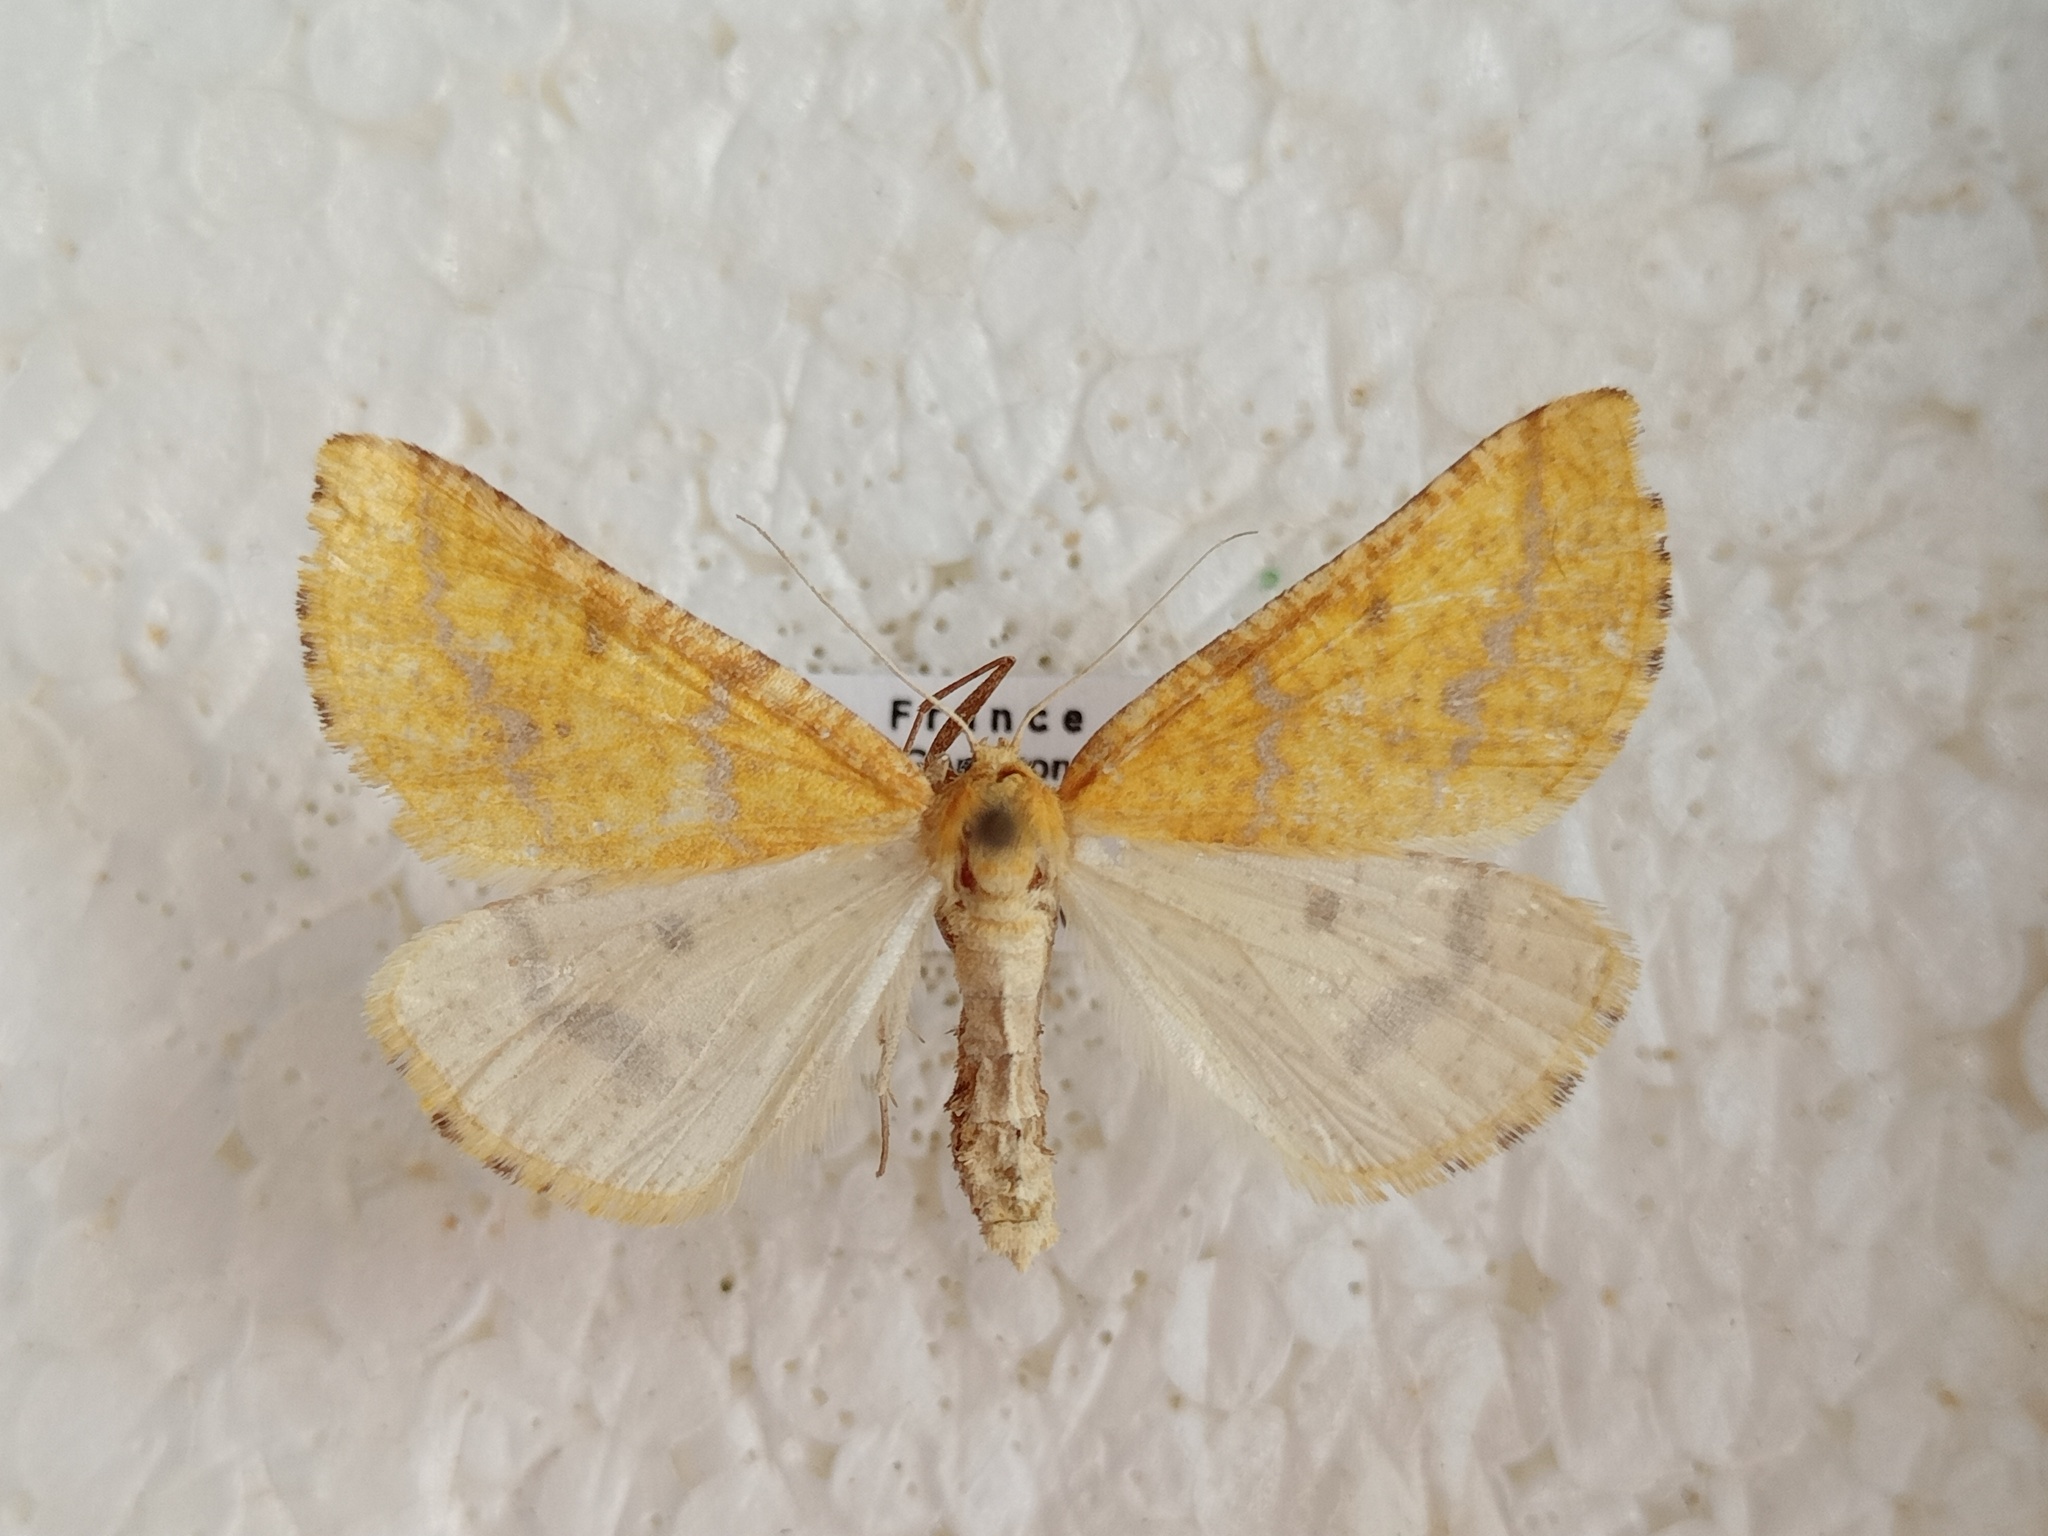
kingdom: Animalia
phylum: Arthropoda
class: Insecta
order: Lepidoptera
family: Geometridae
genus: Aspitates
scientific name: Aspitates ochrearia
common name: Yellow belle
